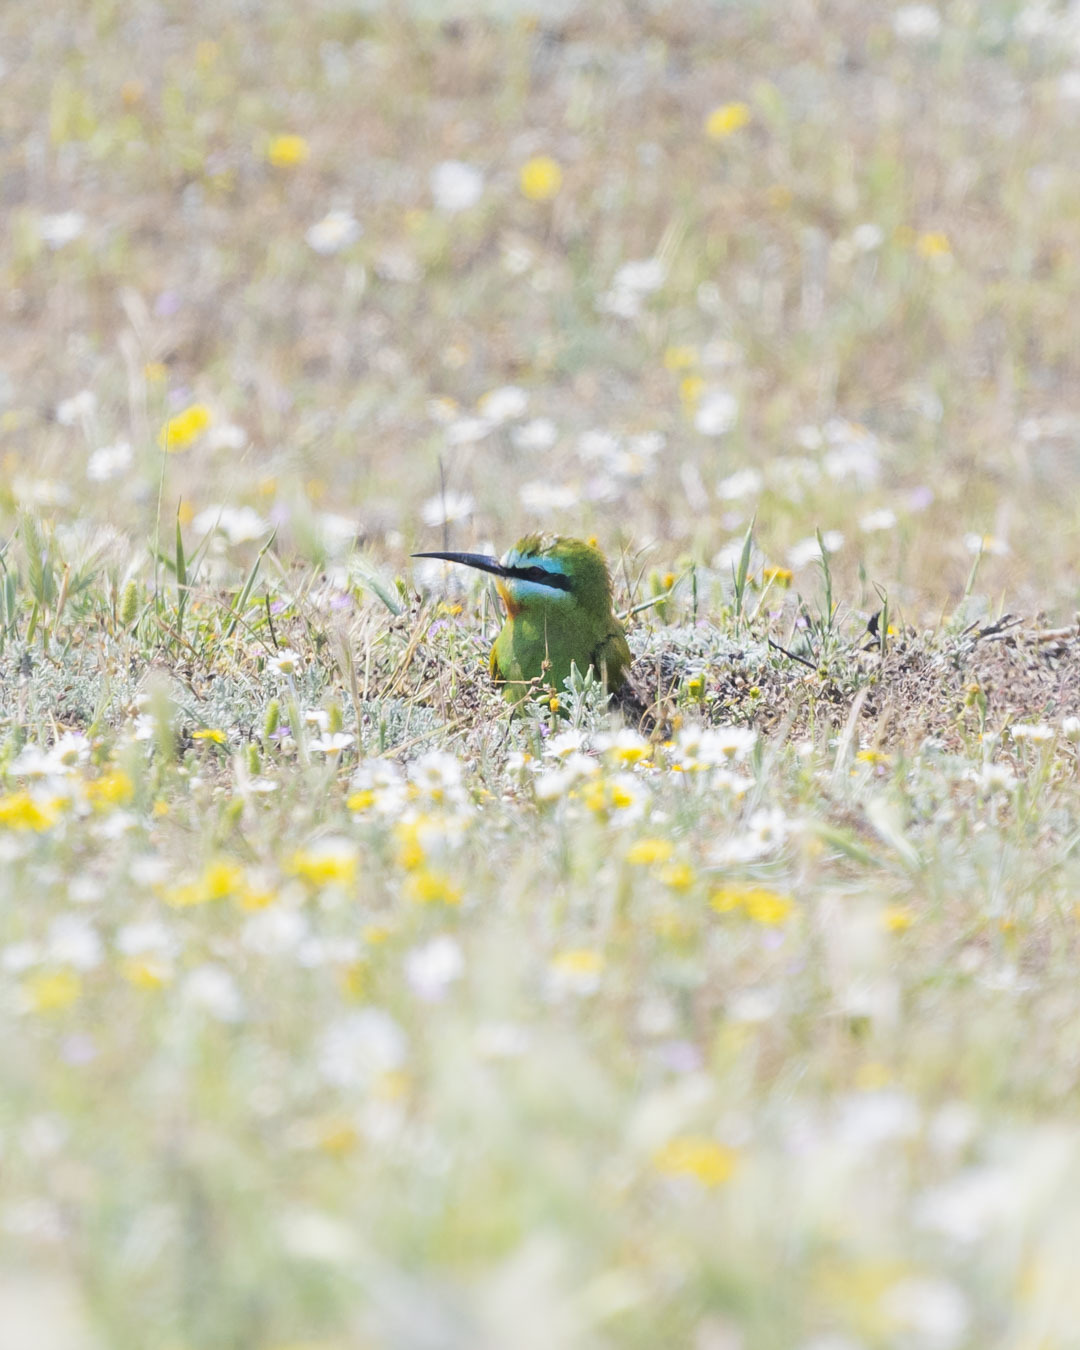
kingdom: Animalia
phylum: Chordata
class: Aves
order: Coraciiformes
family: Meropidae
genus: Merops
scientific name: Merops persicus
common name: Blue-cheeked bee-eater
